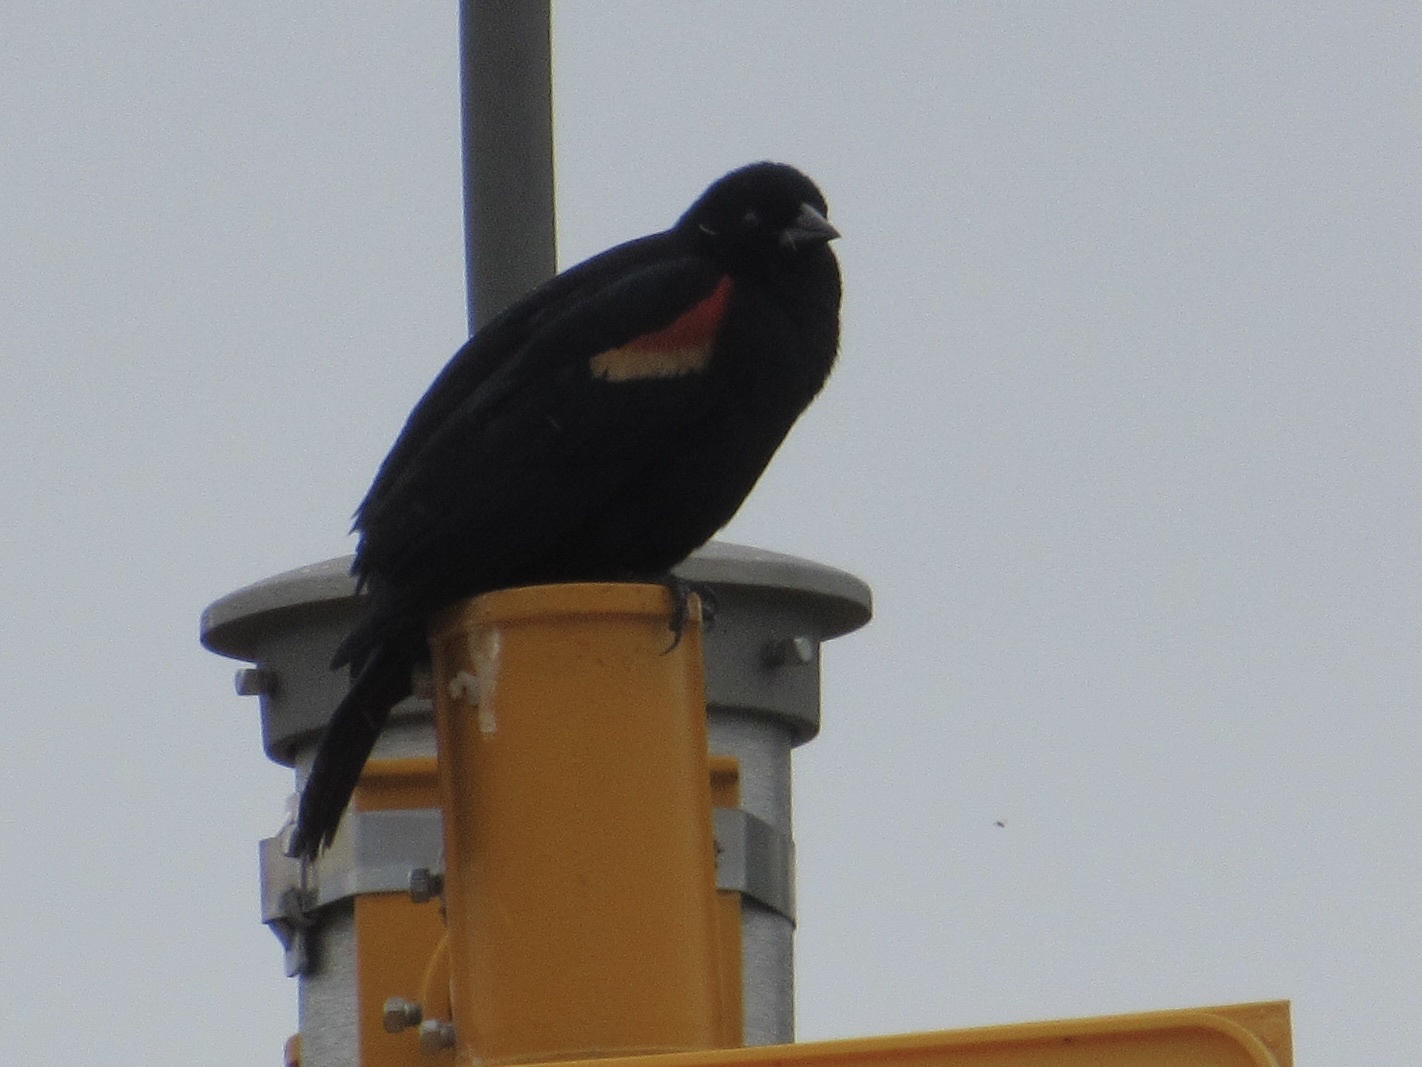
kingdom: Animalia
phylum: Chordata
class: Aves
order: Passeriformes
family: Icteridae
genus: Agelaius
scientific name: Agelaius phoeniceus
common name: Red-winged blackbird
